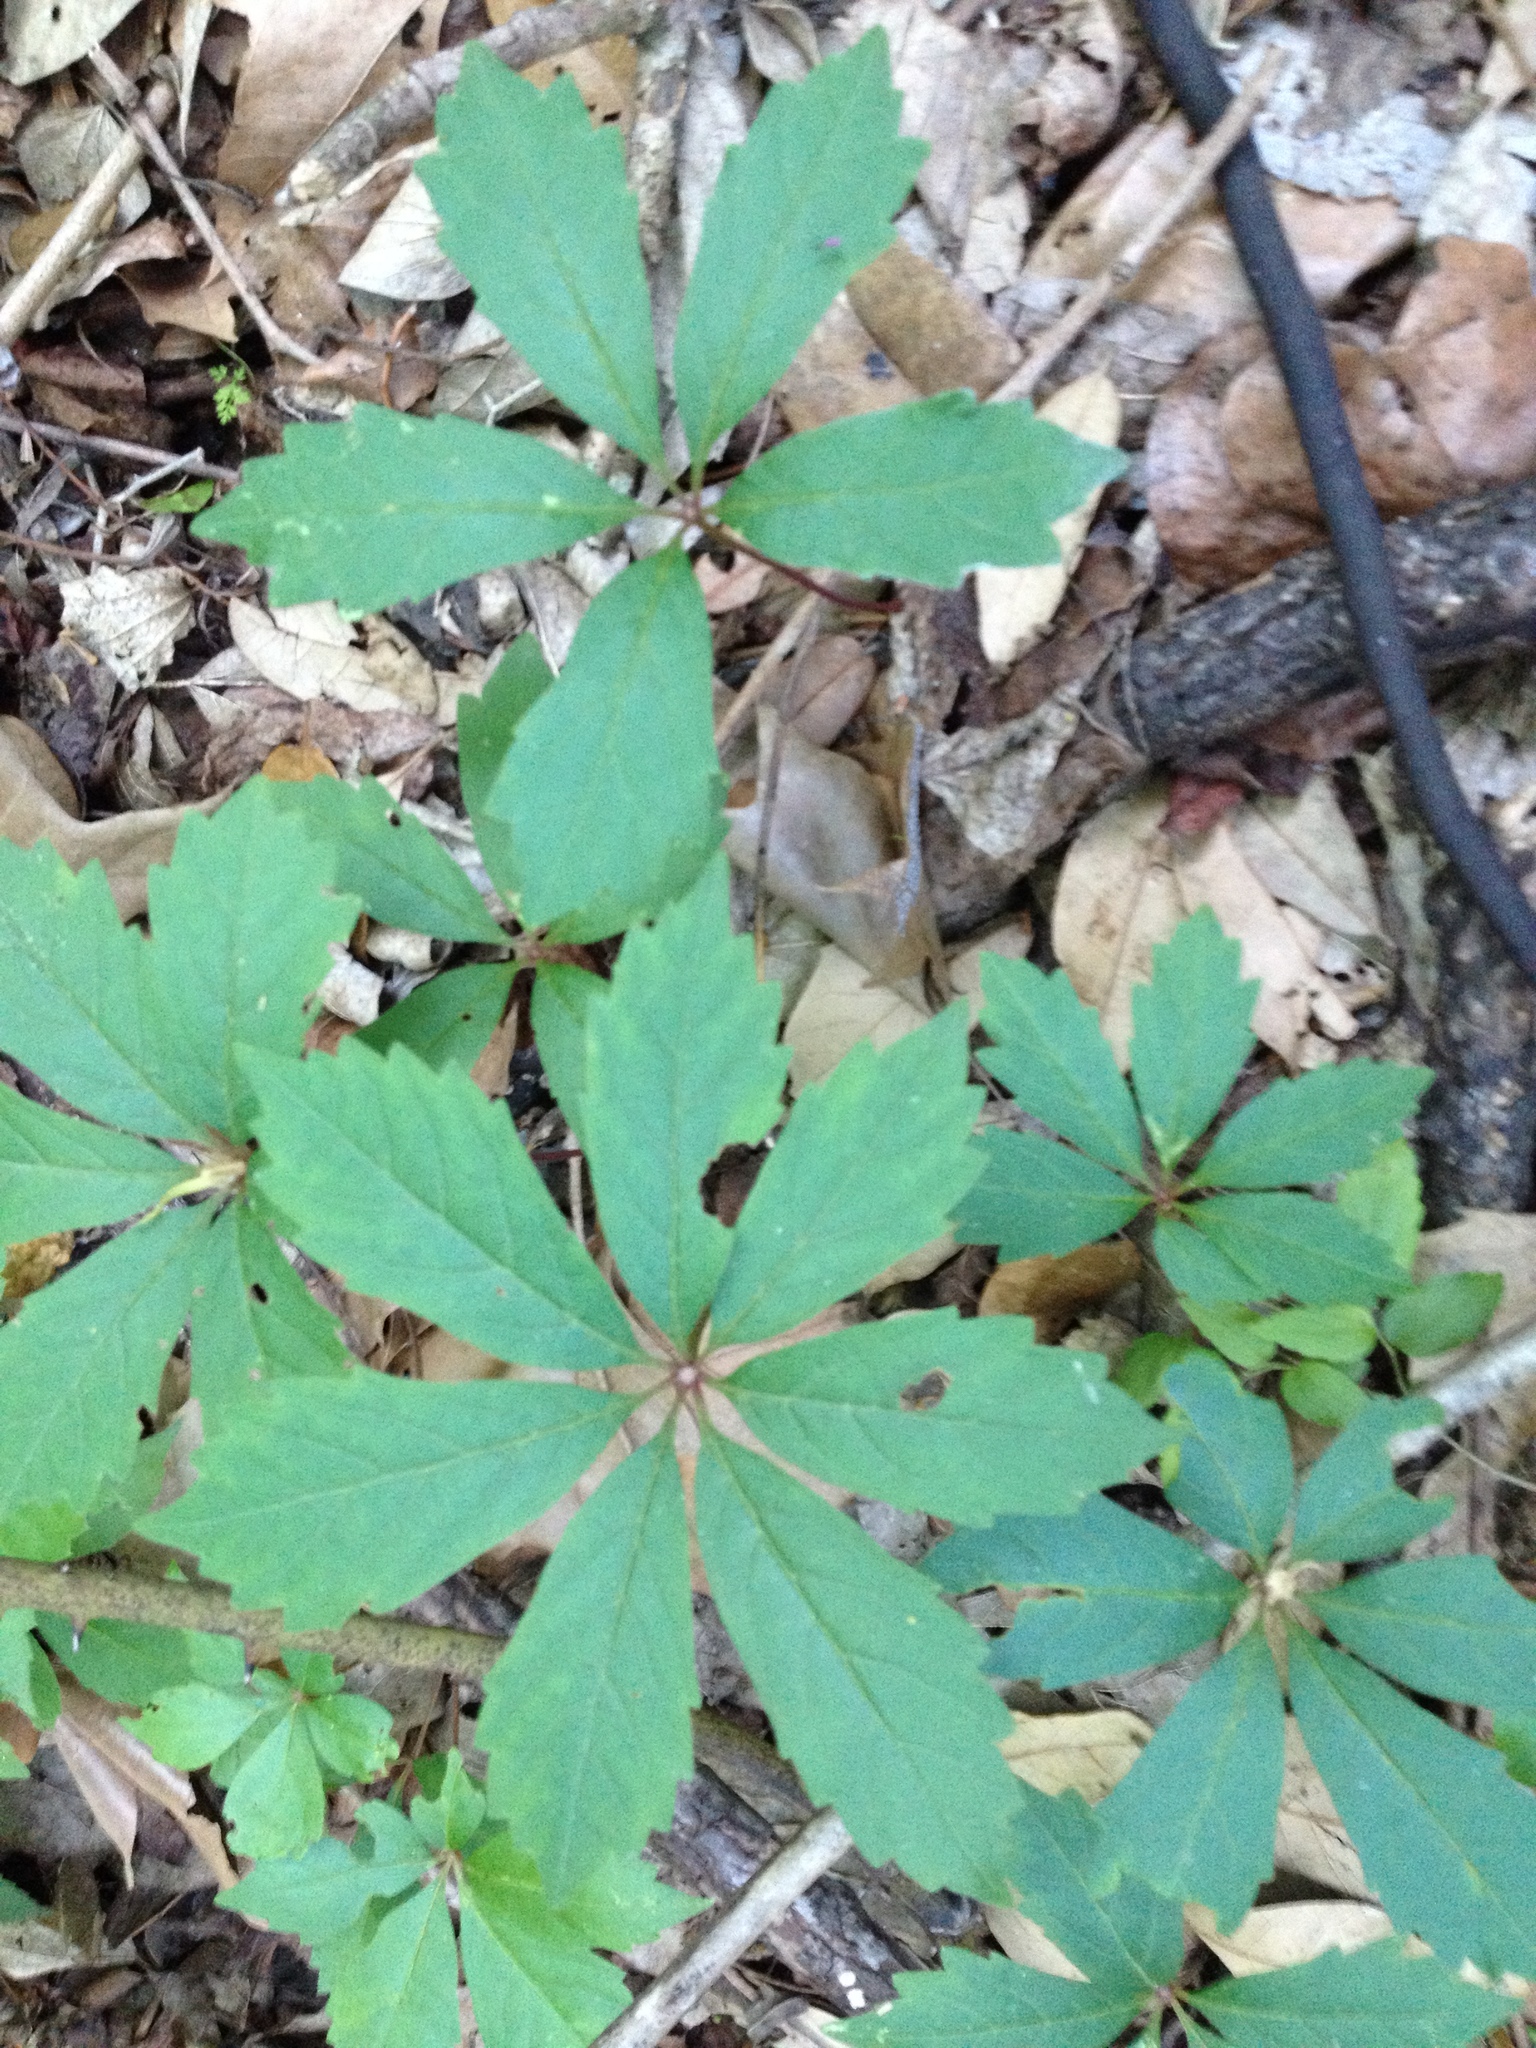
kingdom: Plantae
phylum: Tracheophyta
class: Magnoliopsida
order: Vitales
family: Vitaceae
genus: Parthenocissus
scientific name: Parthenocissus heptaphylla
